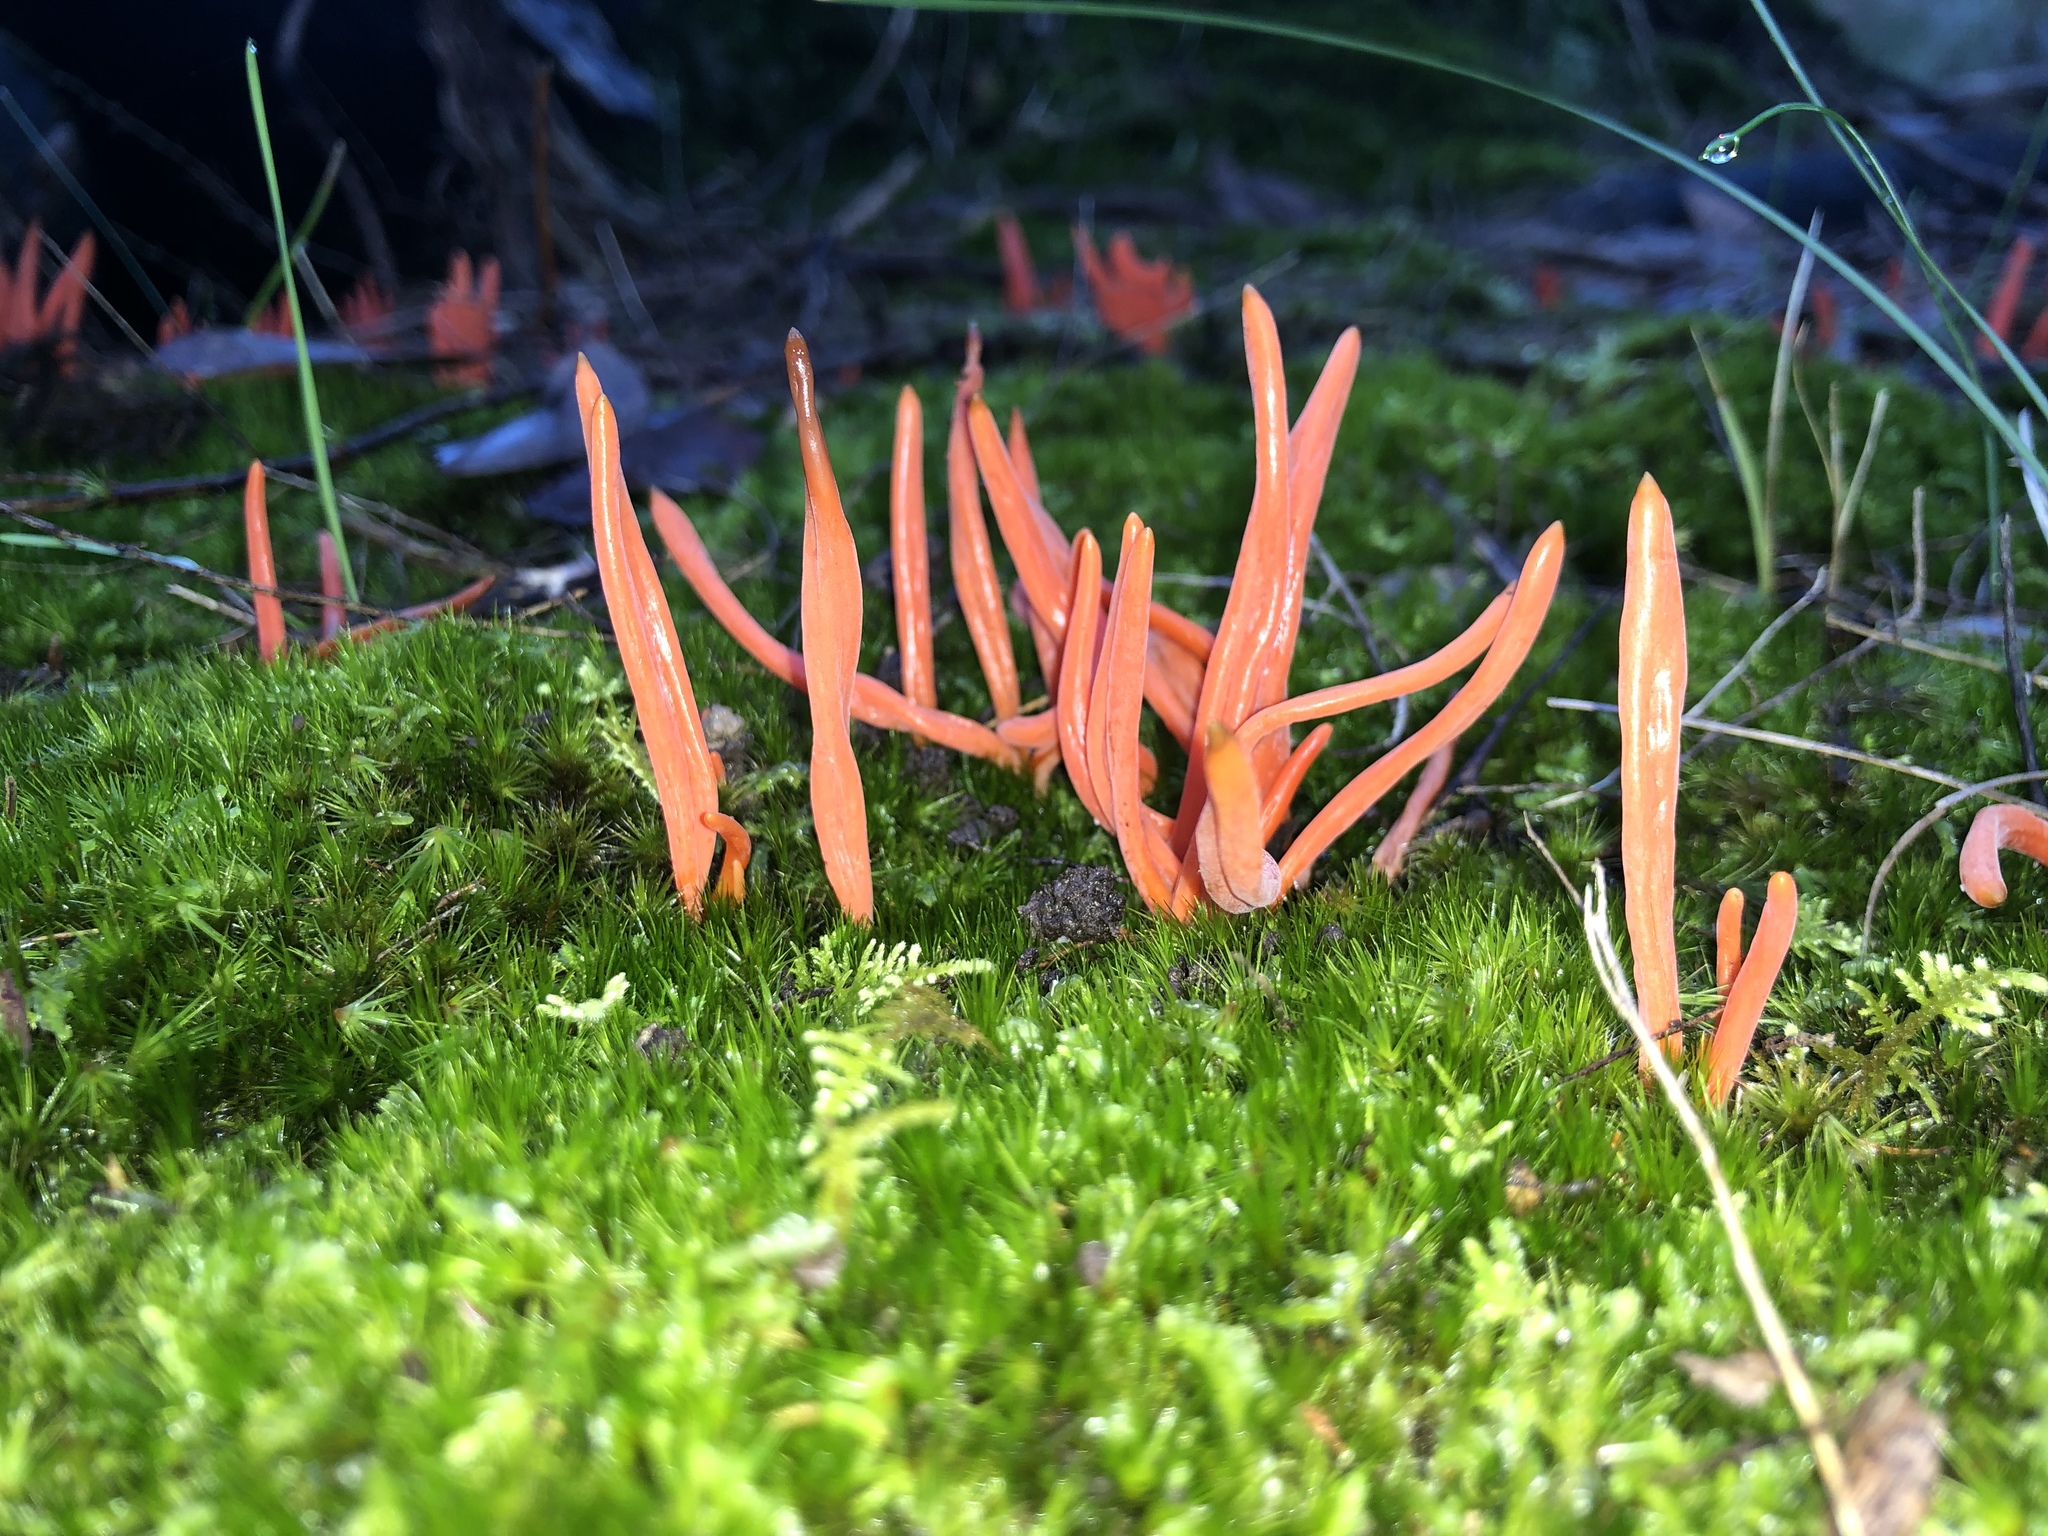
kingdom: Fungi
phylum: Basidiomycota
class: Agaricomycetes
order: Agaricales
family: Clavariaceae
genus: Clavulinopsis
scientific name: Clavulinopsis sulcata
